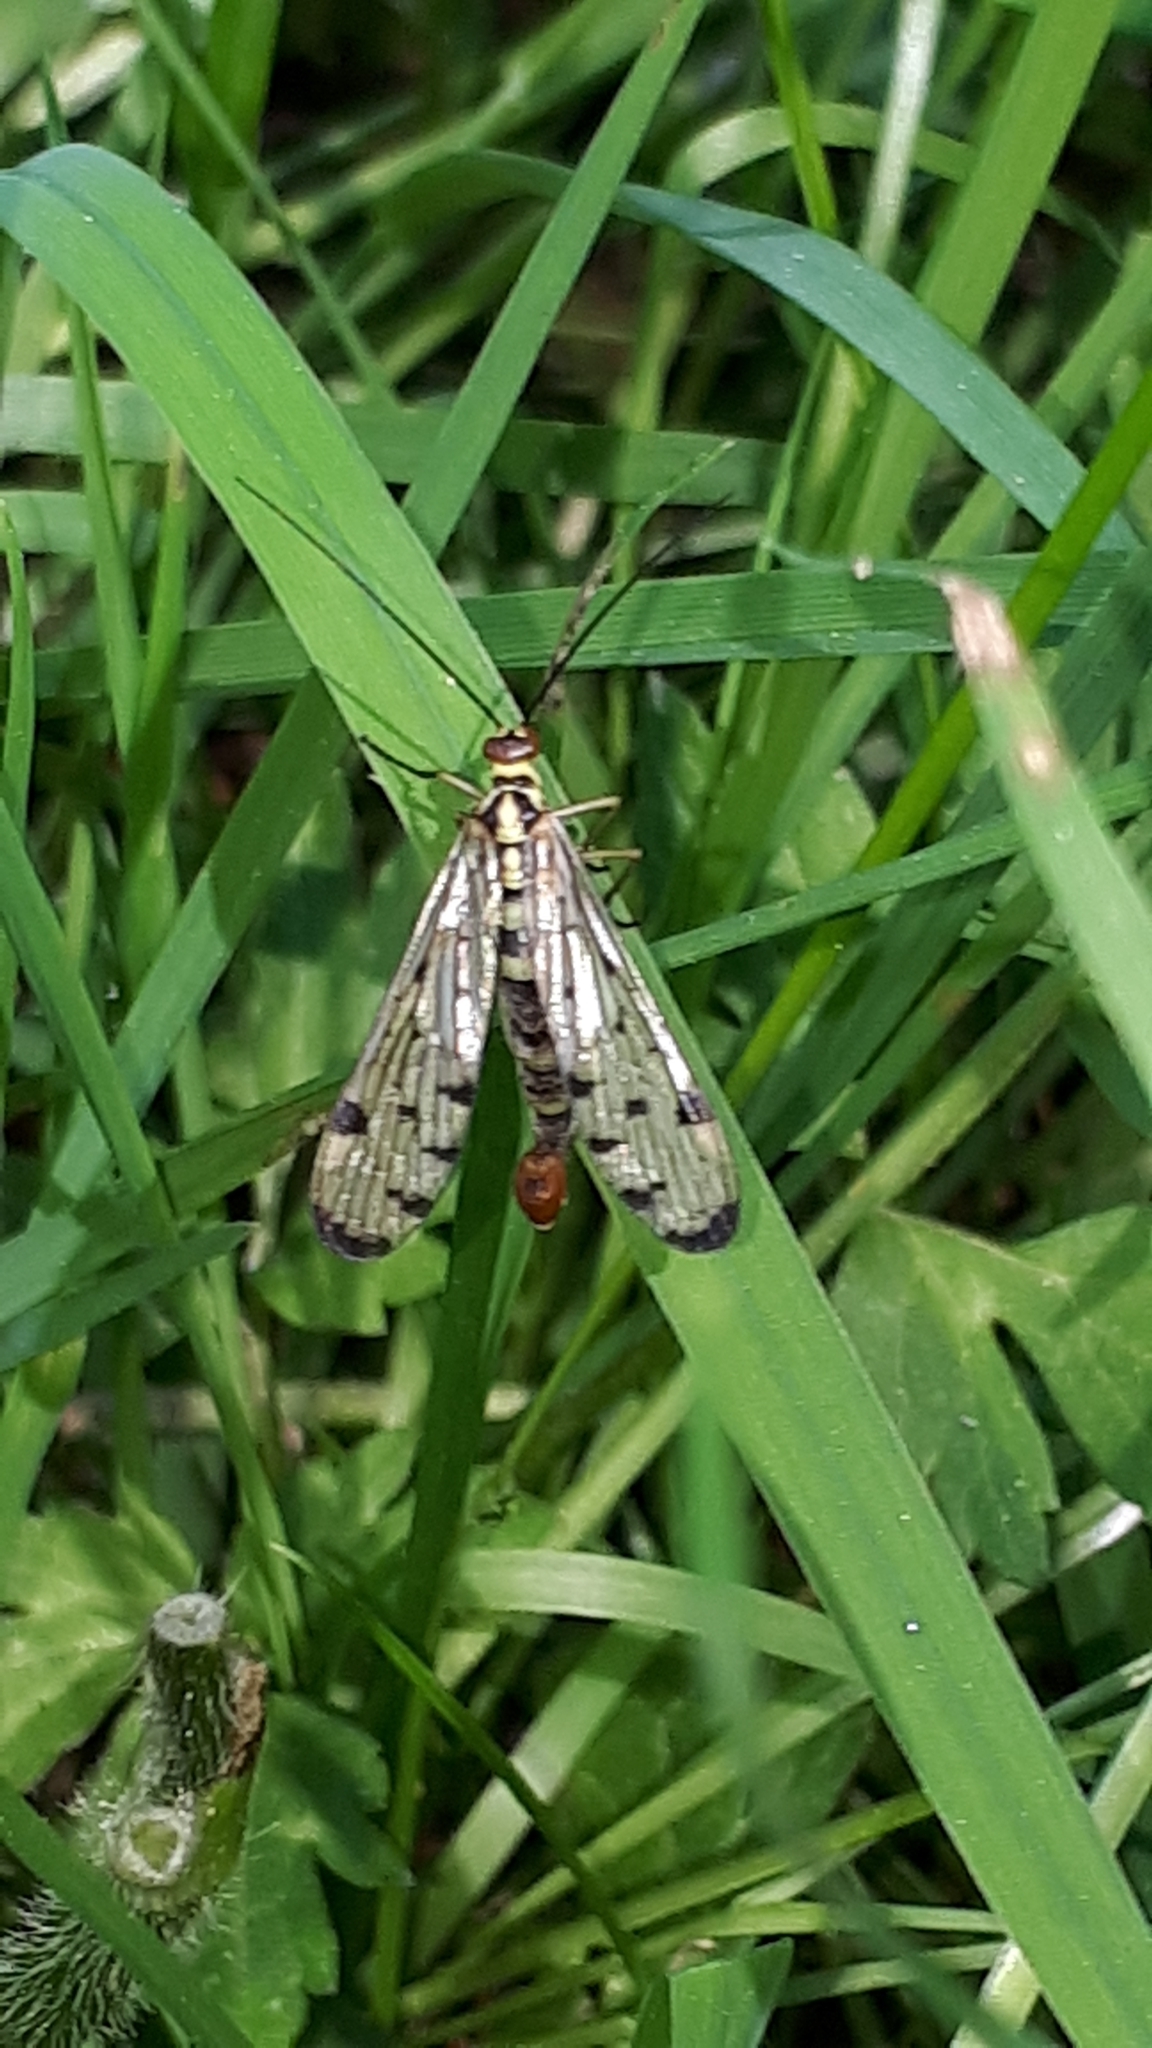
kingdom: Animalia
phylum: Arthropoda
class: Insecta
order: Mecoptera
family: Panorpidae
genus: Panorpa
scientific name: Panorpa germanica
